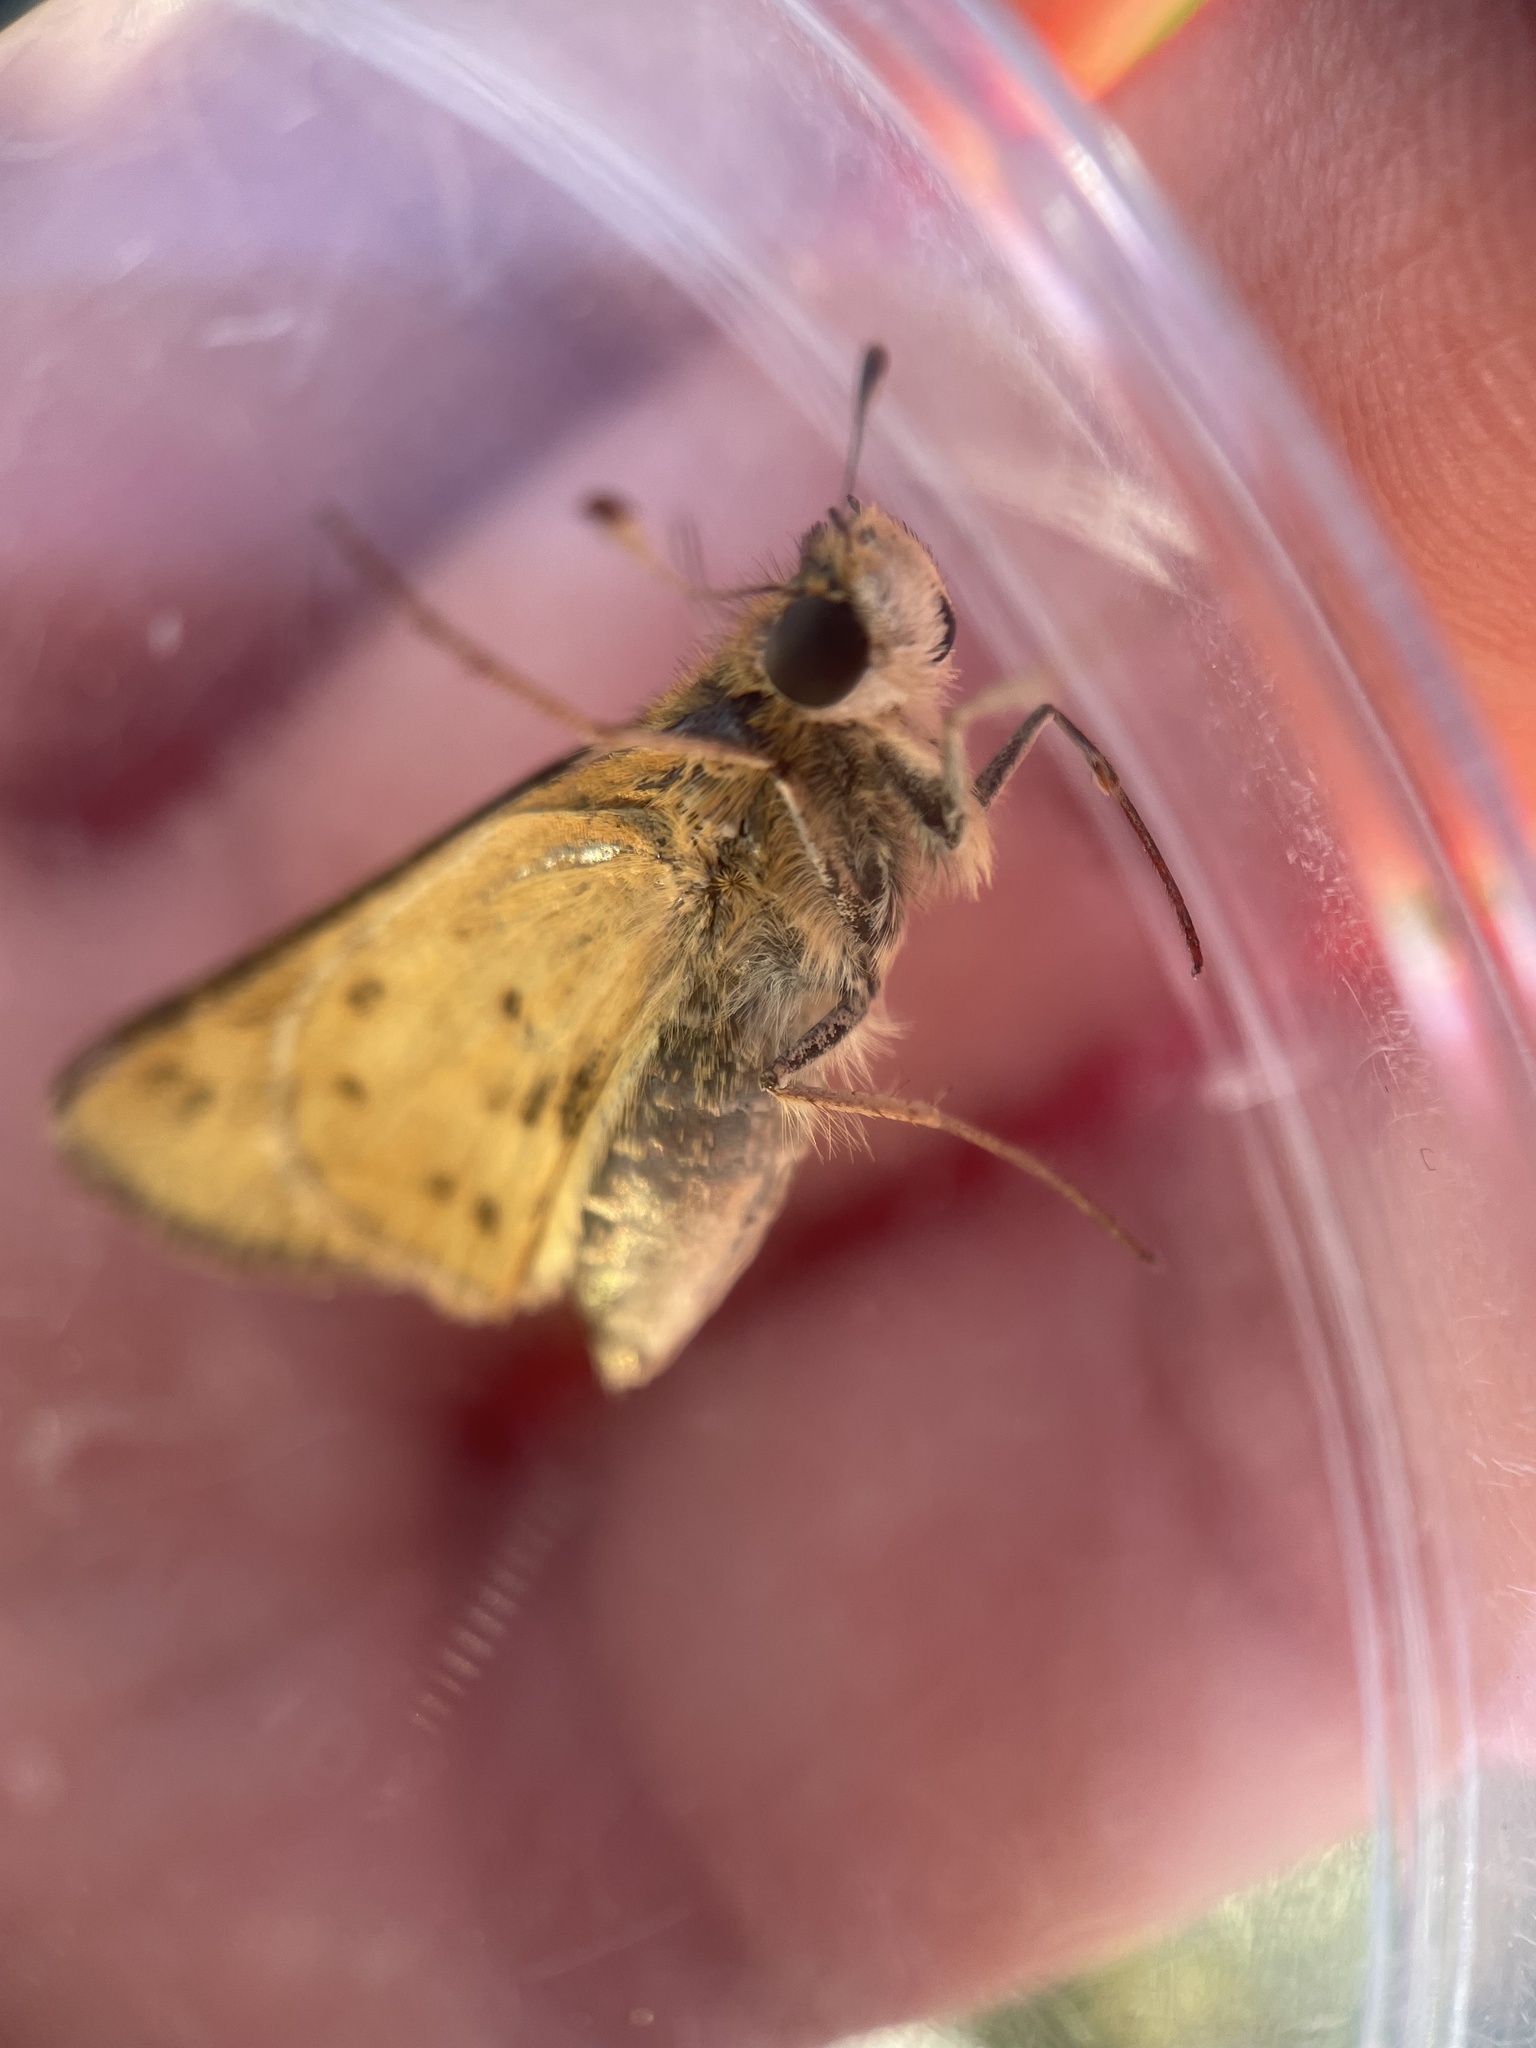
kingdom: Animalia
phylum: Arthropoda
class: Insecta
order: Lepidoptera
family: Hesperiidae
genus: Hylephila
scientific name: Hylephila phyleus
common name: Fiery skipper
